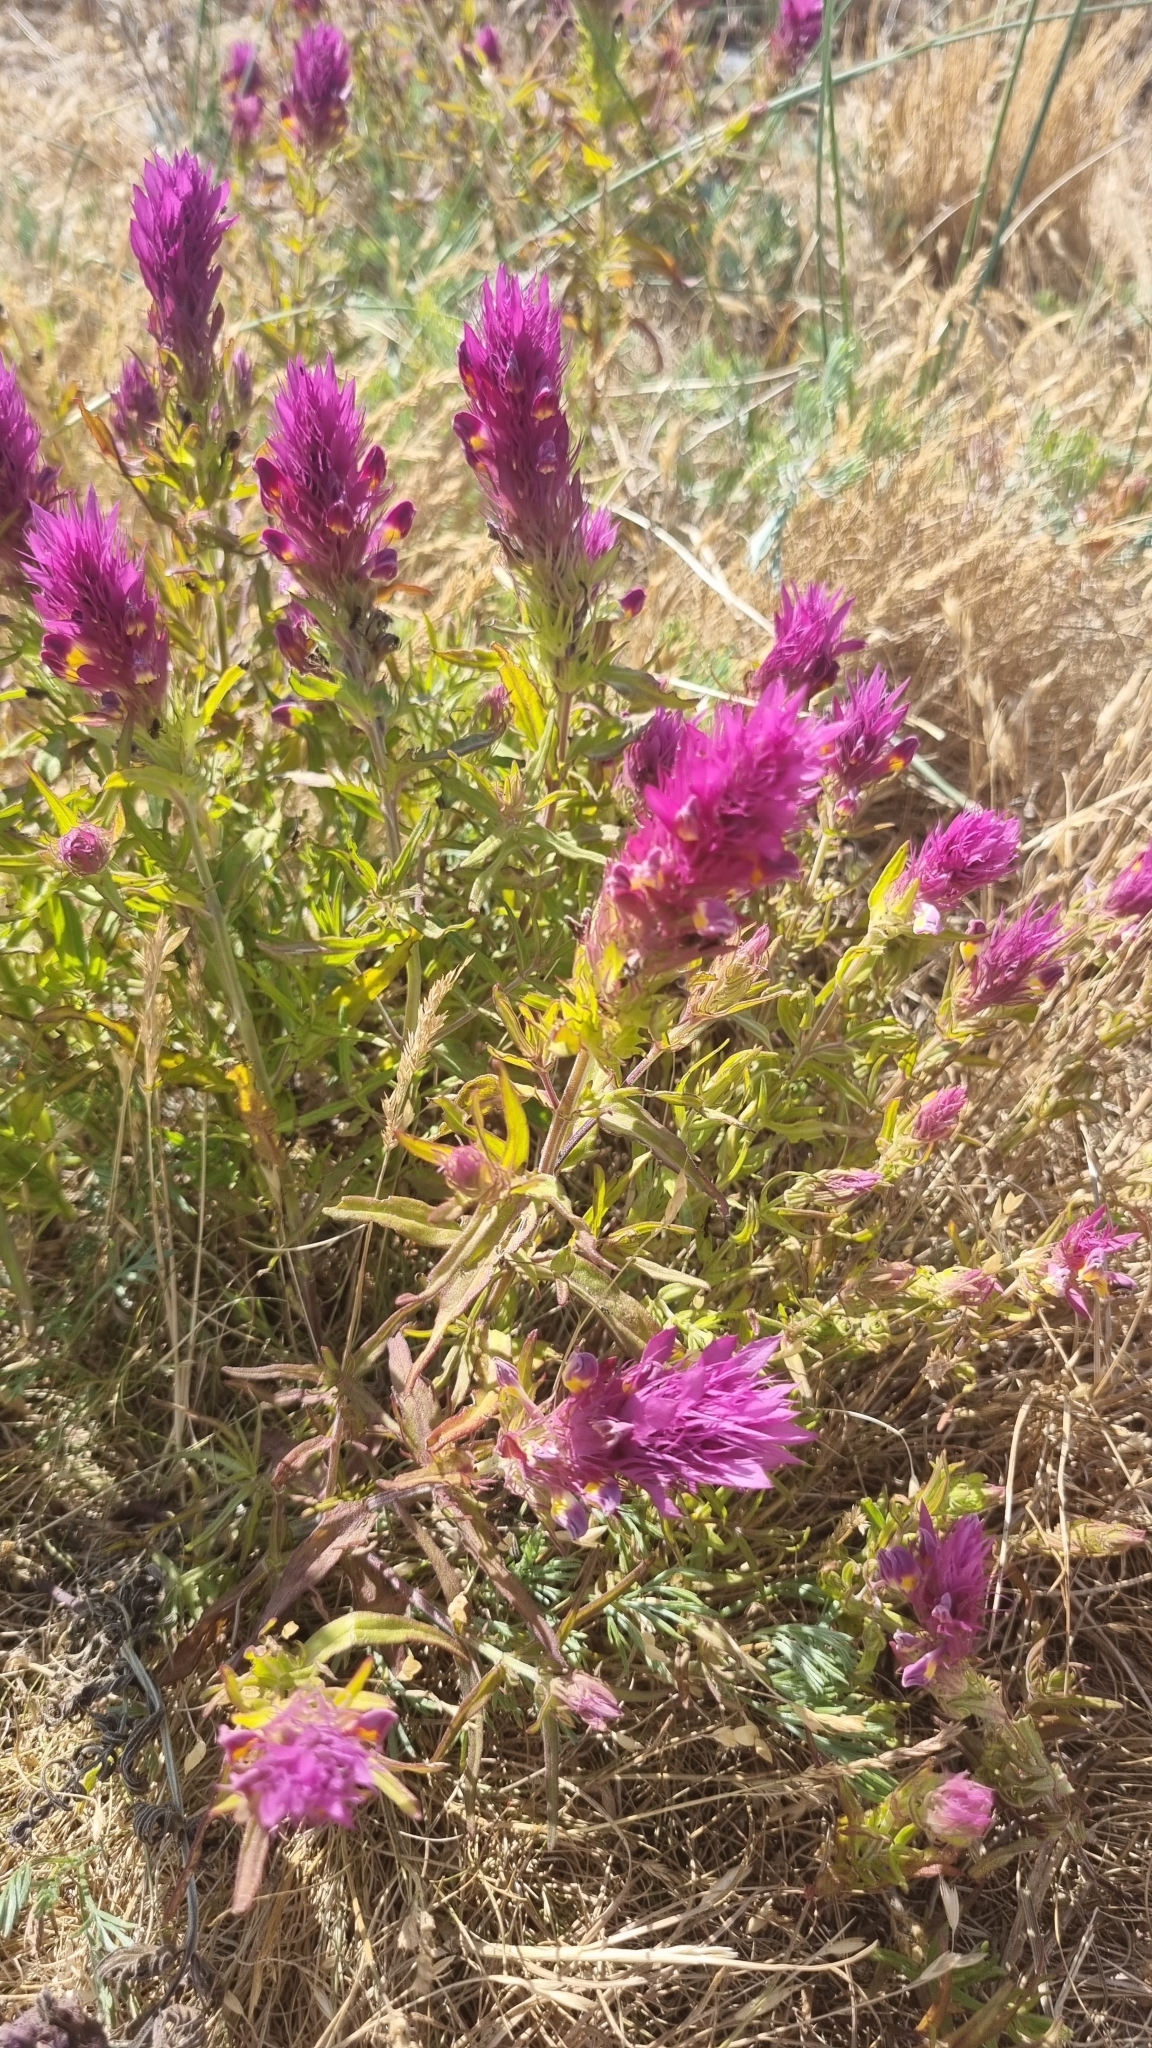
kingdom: Plantae
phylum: Tracheophyta
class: Magnoliopsida
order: Lamiales
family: Orobanchaceae
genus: Melampyrum
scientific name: Melampyrum arvense
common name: Field cow-wheat
